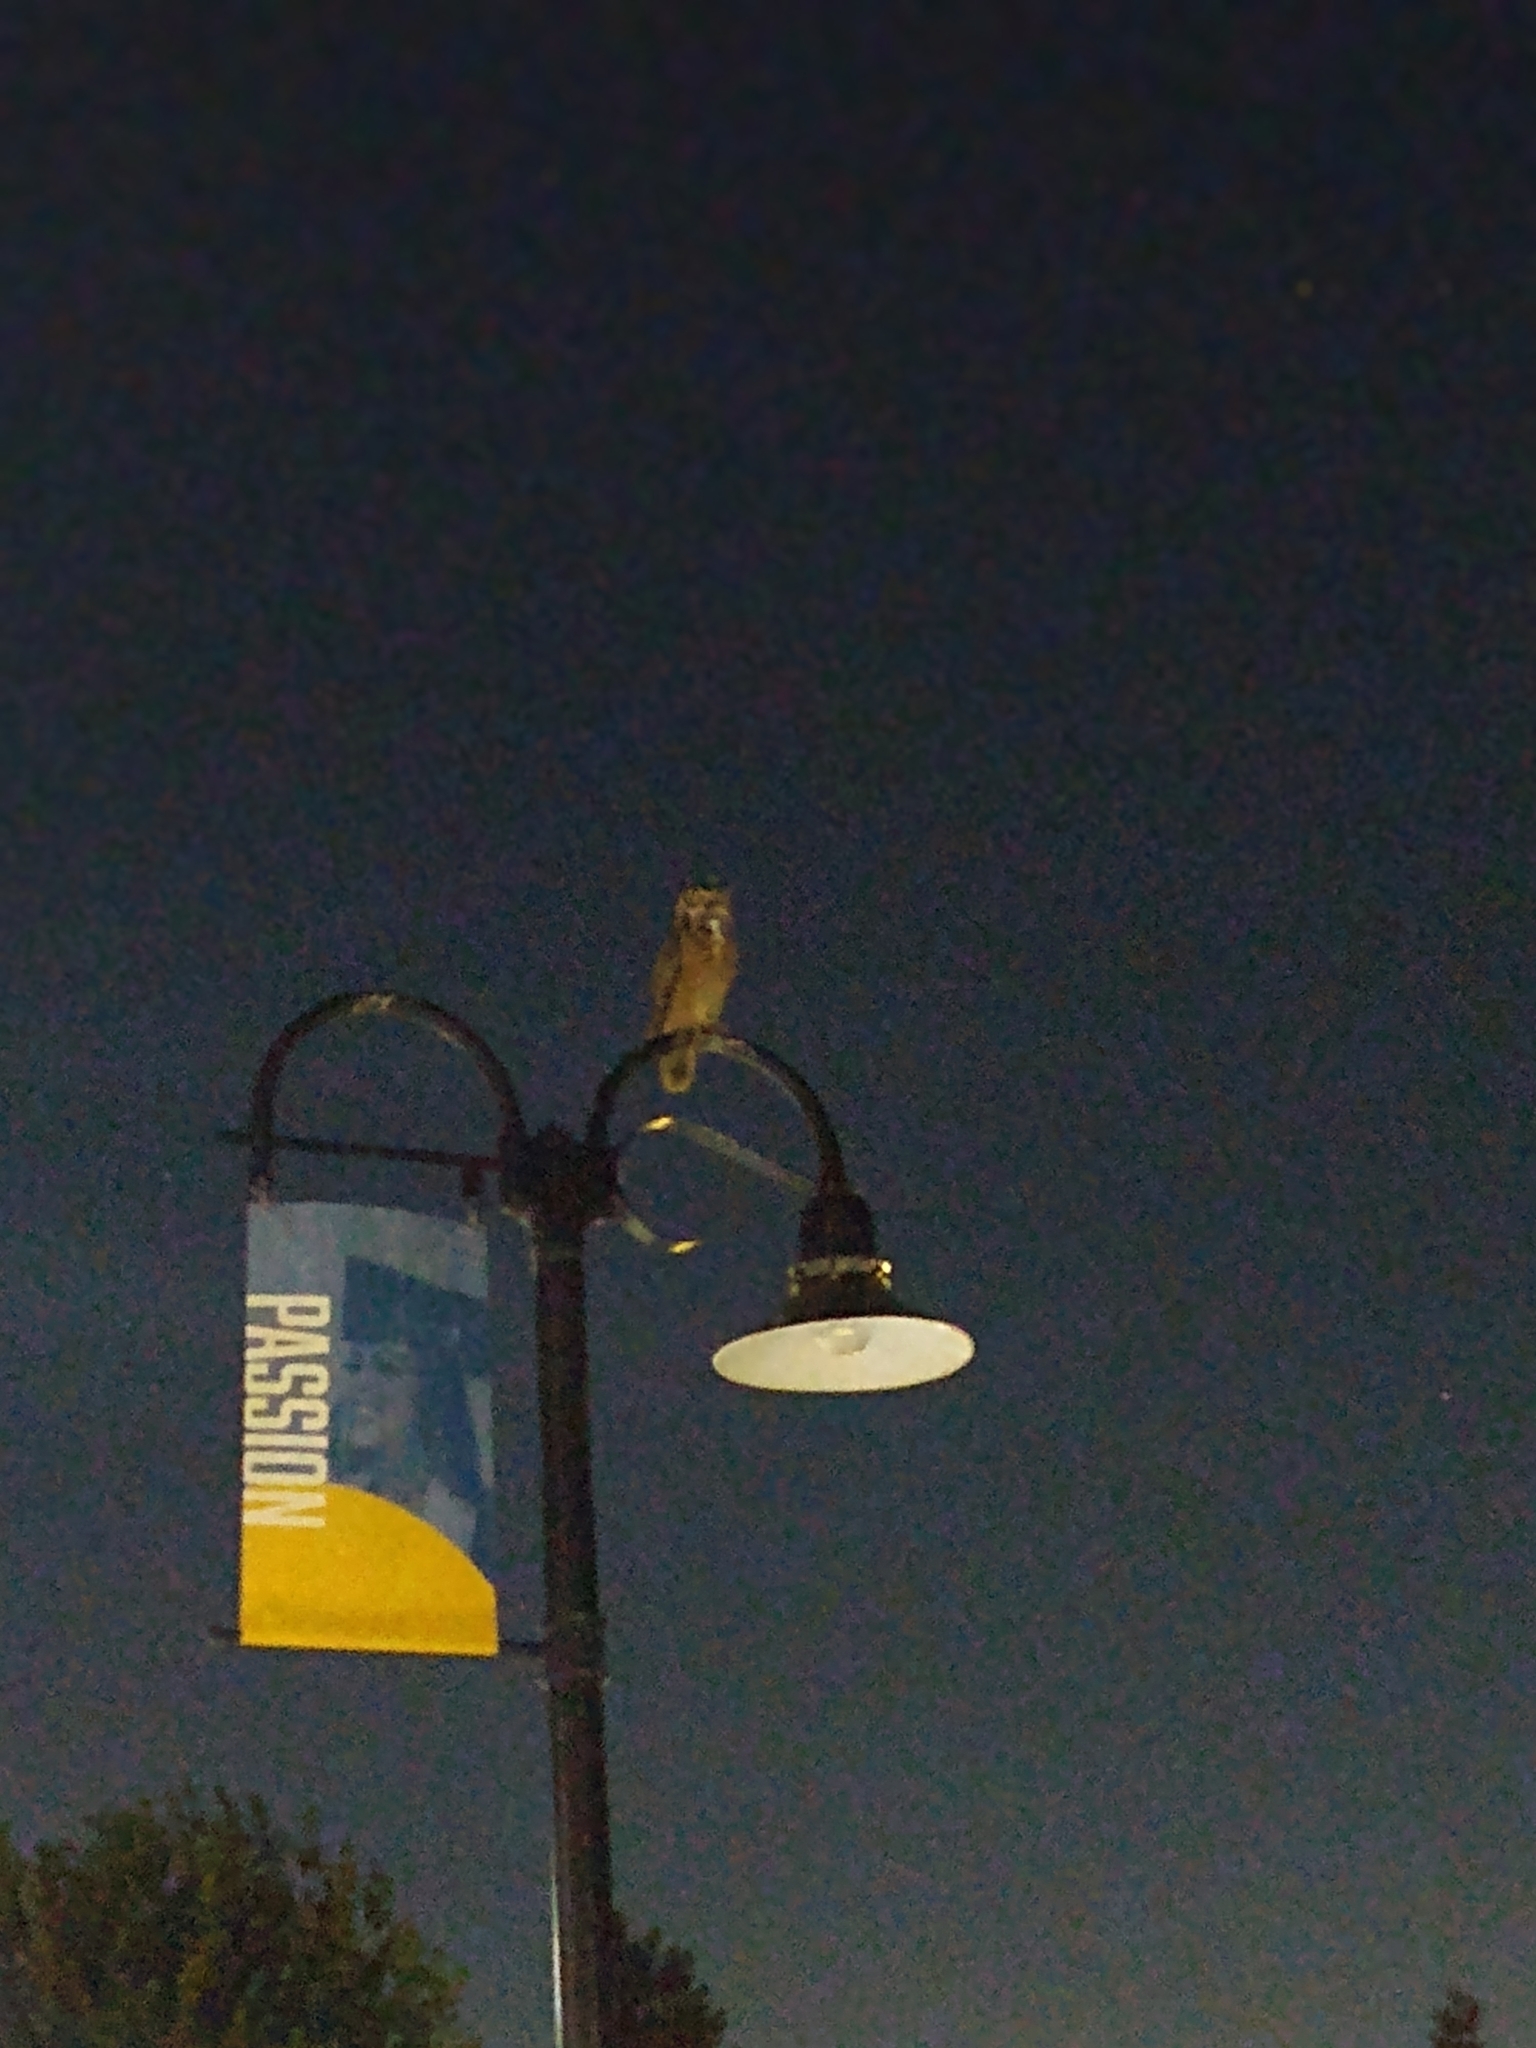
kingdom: Animalia
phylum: Chordata
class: Aves
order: Strigiformes
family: Strigidae
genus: Bubo
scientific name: Bubo virginianus
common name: Great horned owl
